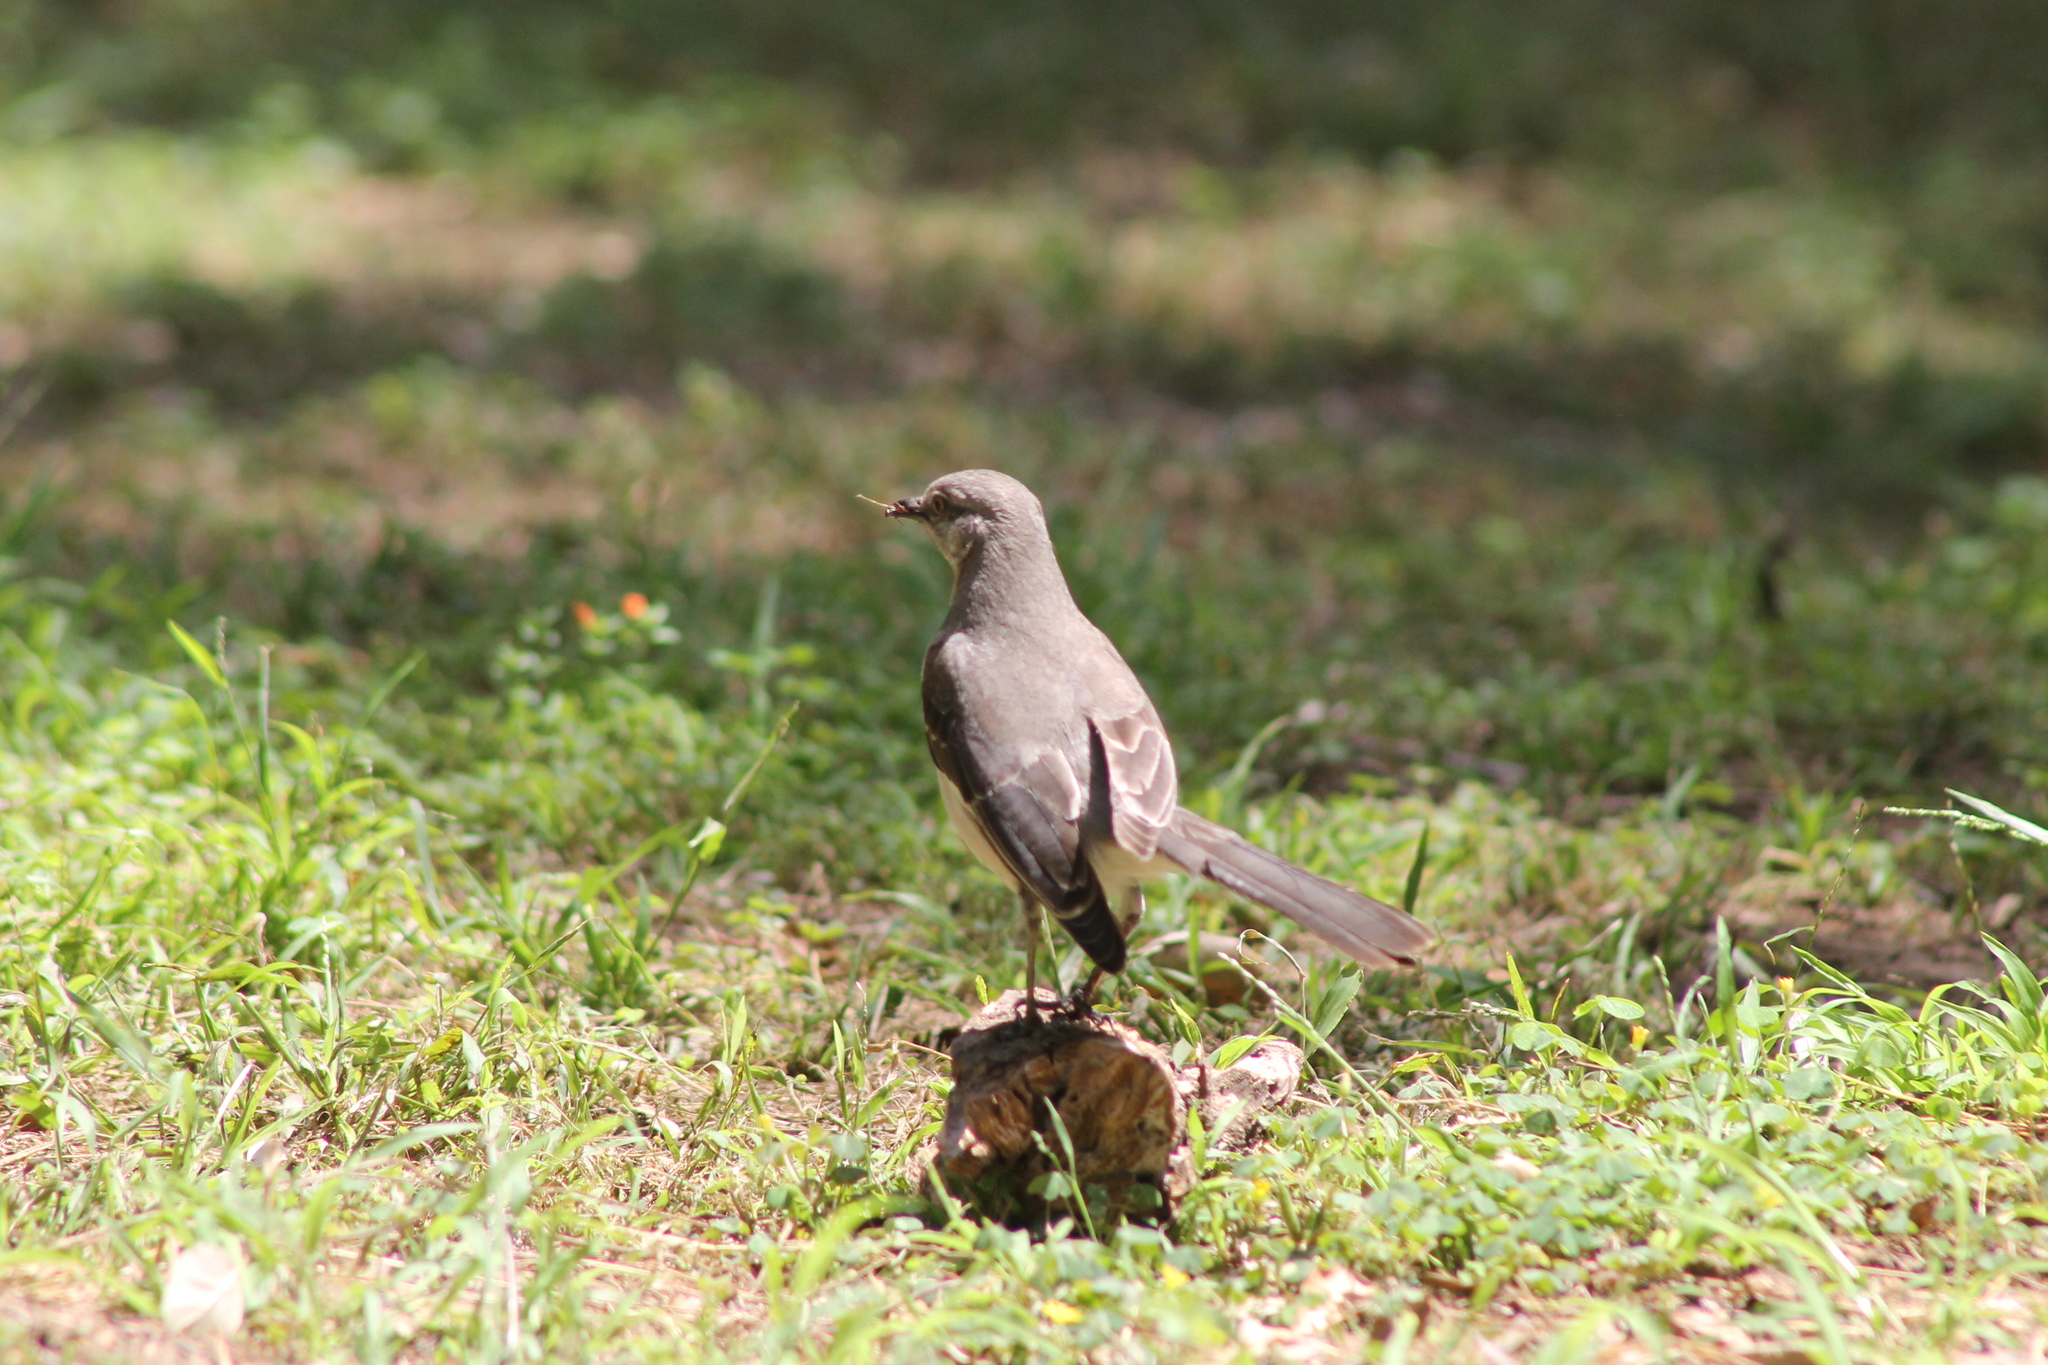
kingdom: Animalia
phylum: Chordata
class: Aves
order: Passeriformes
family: Mimidae
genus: Mimus
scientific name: Mimus polyglottos
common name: Northern mockingbird
